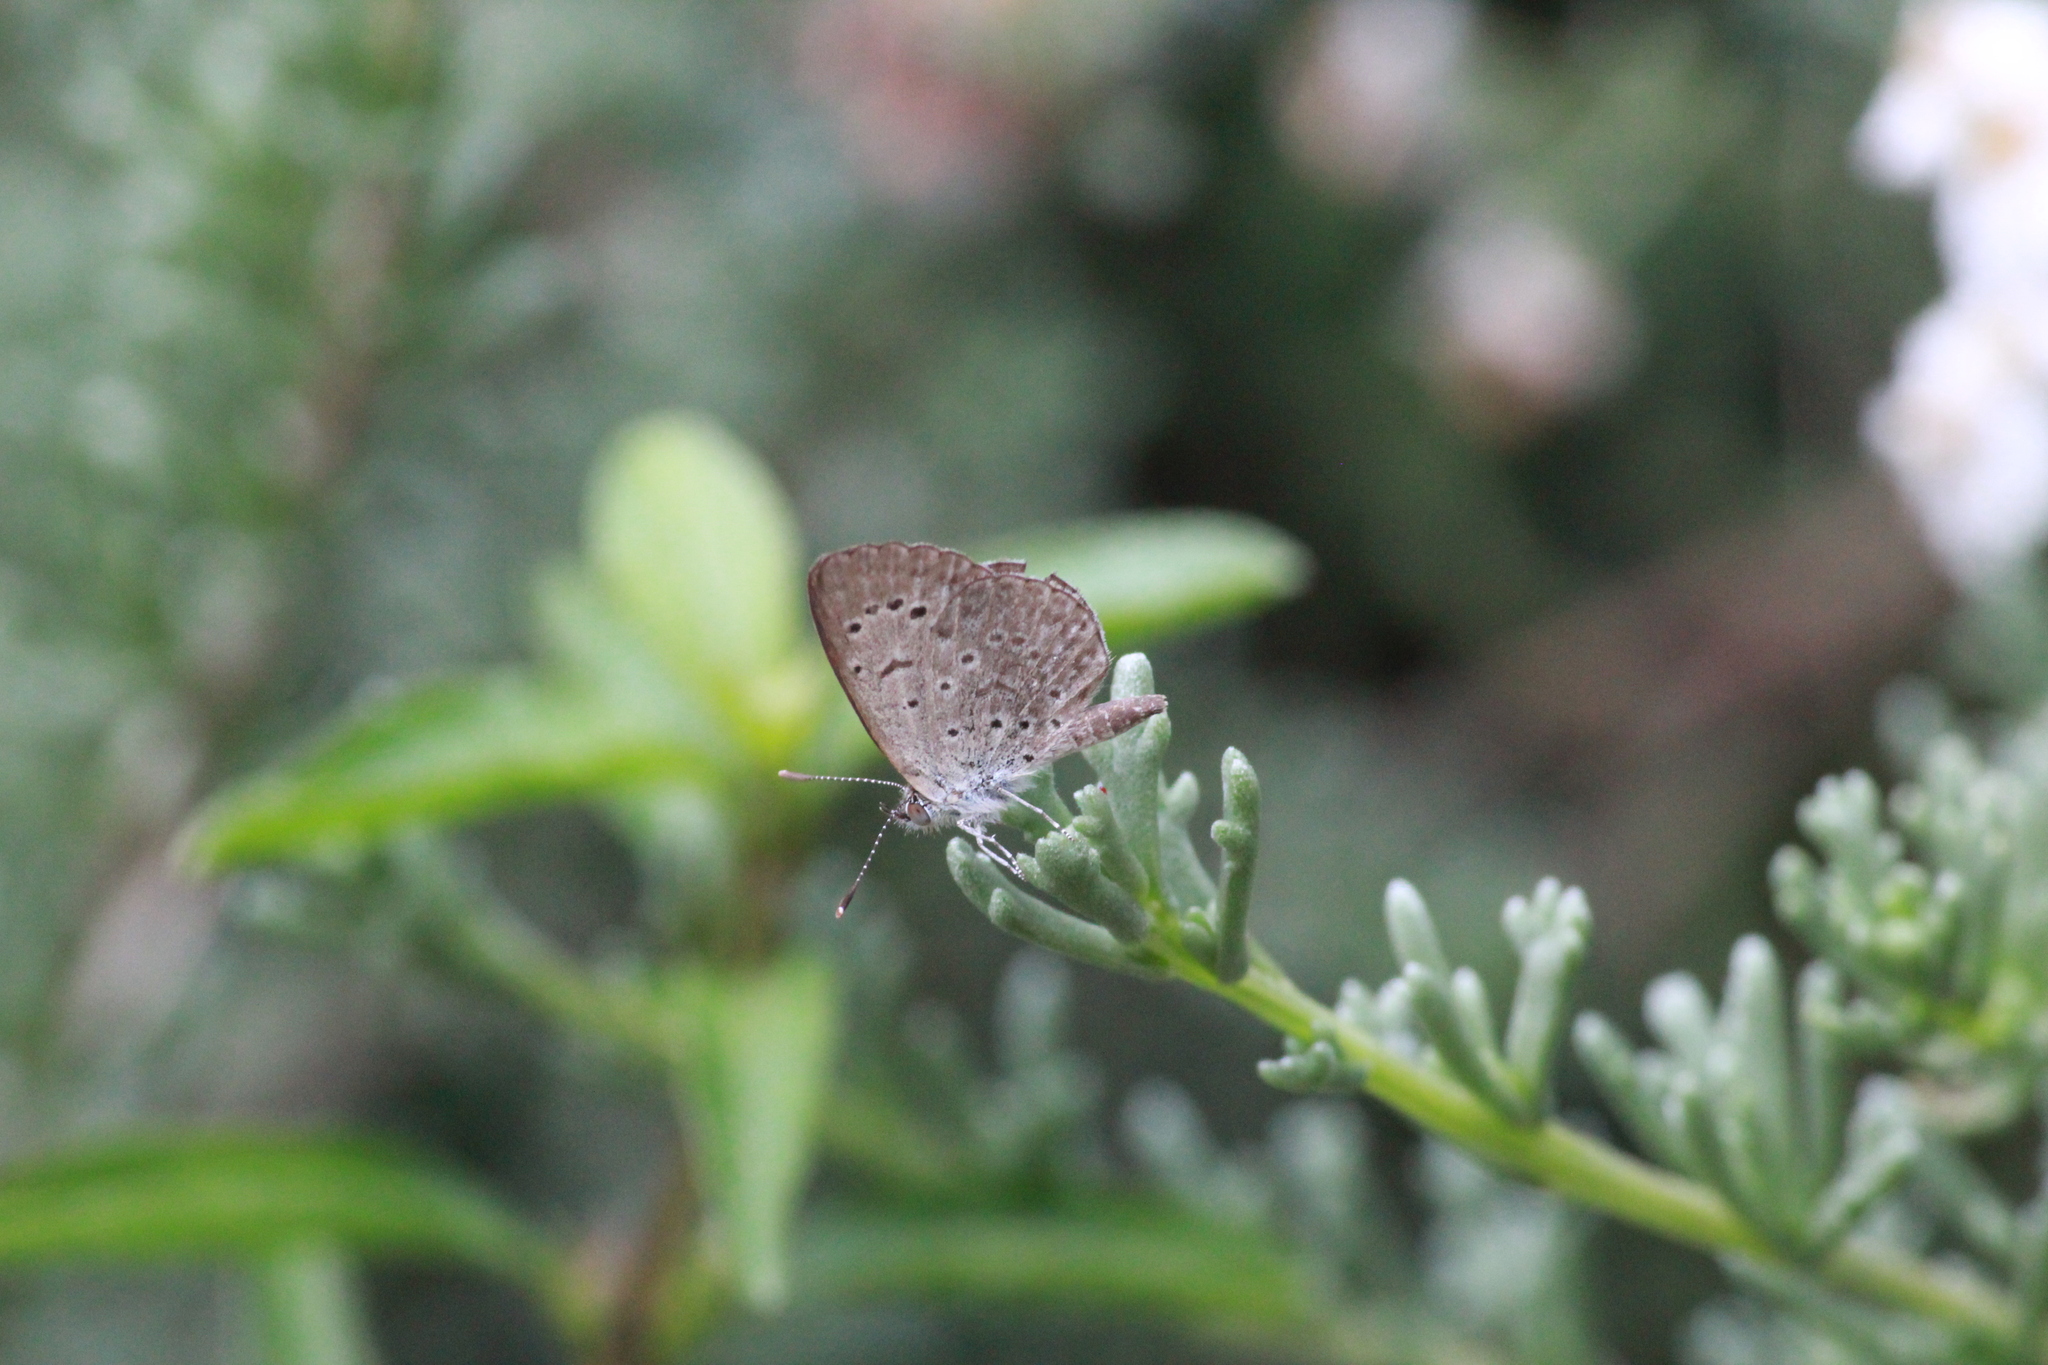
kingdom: Animalia
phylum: Arthropoda
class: Insecta
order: Lepidoptera
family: Lycaenidae
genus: Zizeeria
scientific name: Zizeeria knysna
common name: African grass blue
